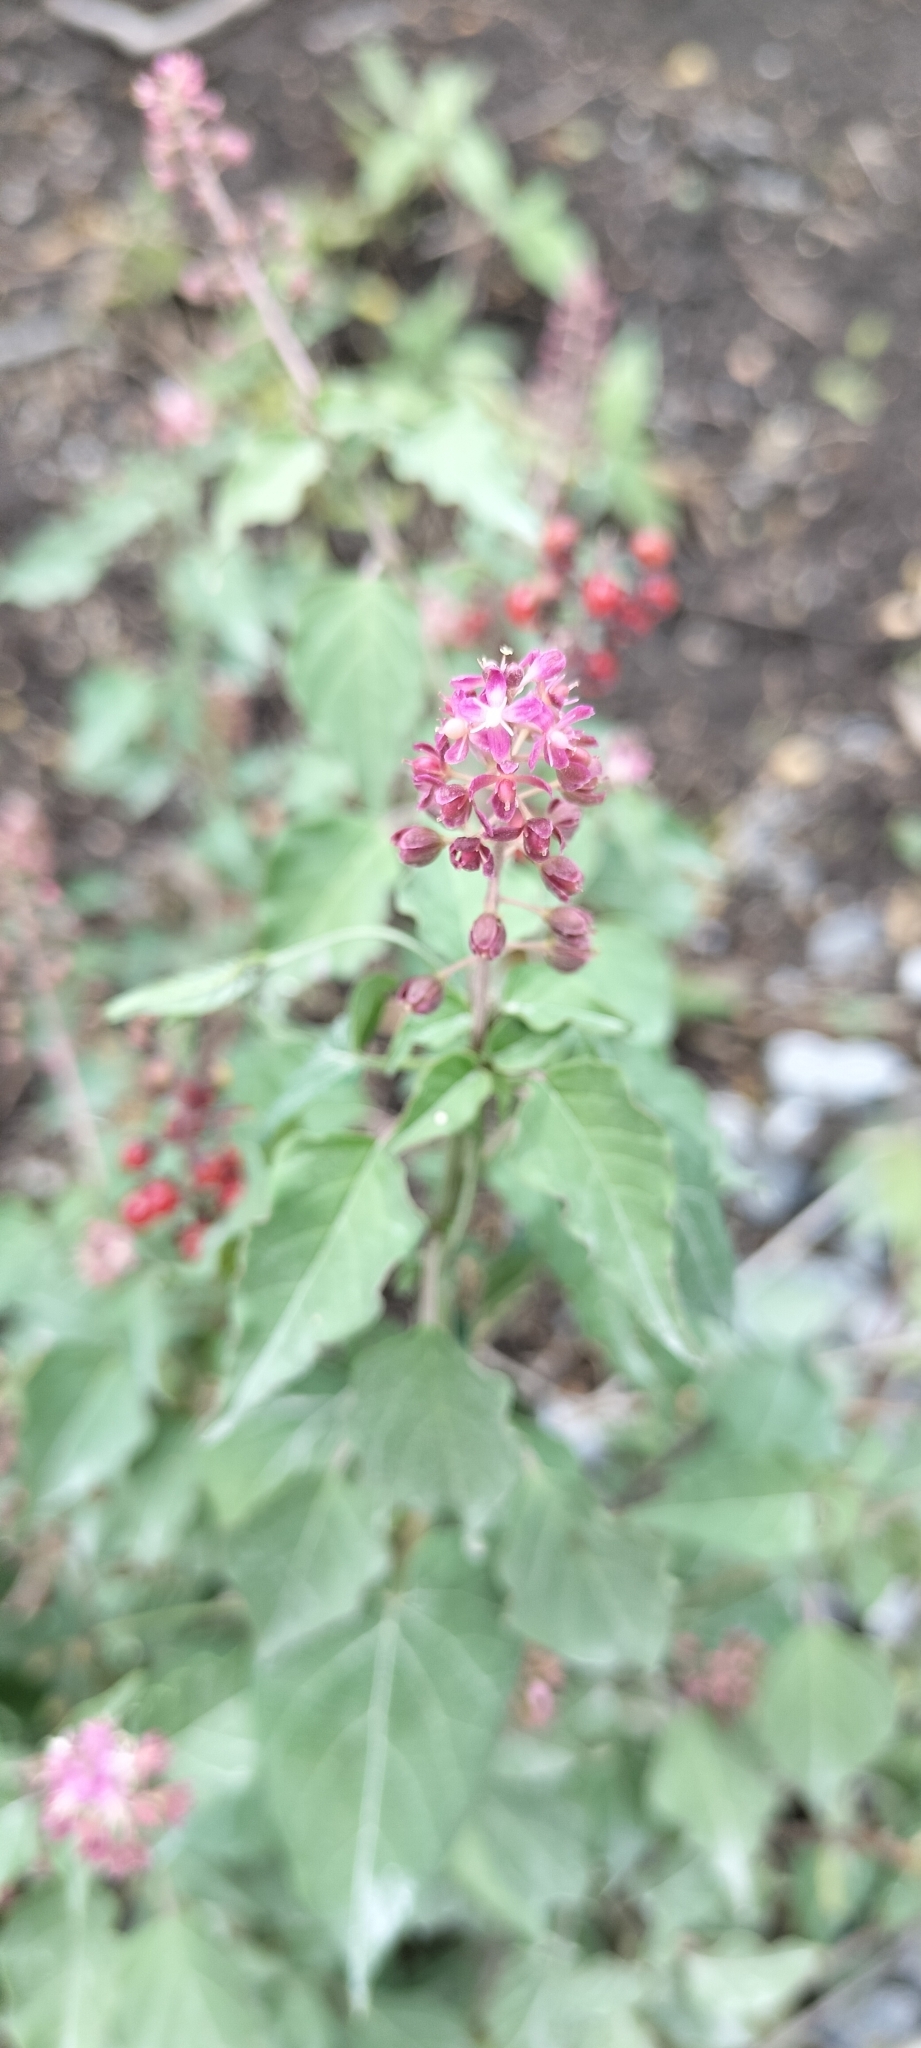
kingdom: Plantae
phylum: Tracheophyta
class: Magnoliopsida
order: Caryophyllales
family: Phytolaccaceae
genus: Rivina
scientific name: Rivina humilis
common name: Rougeplant
